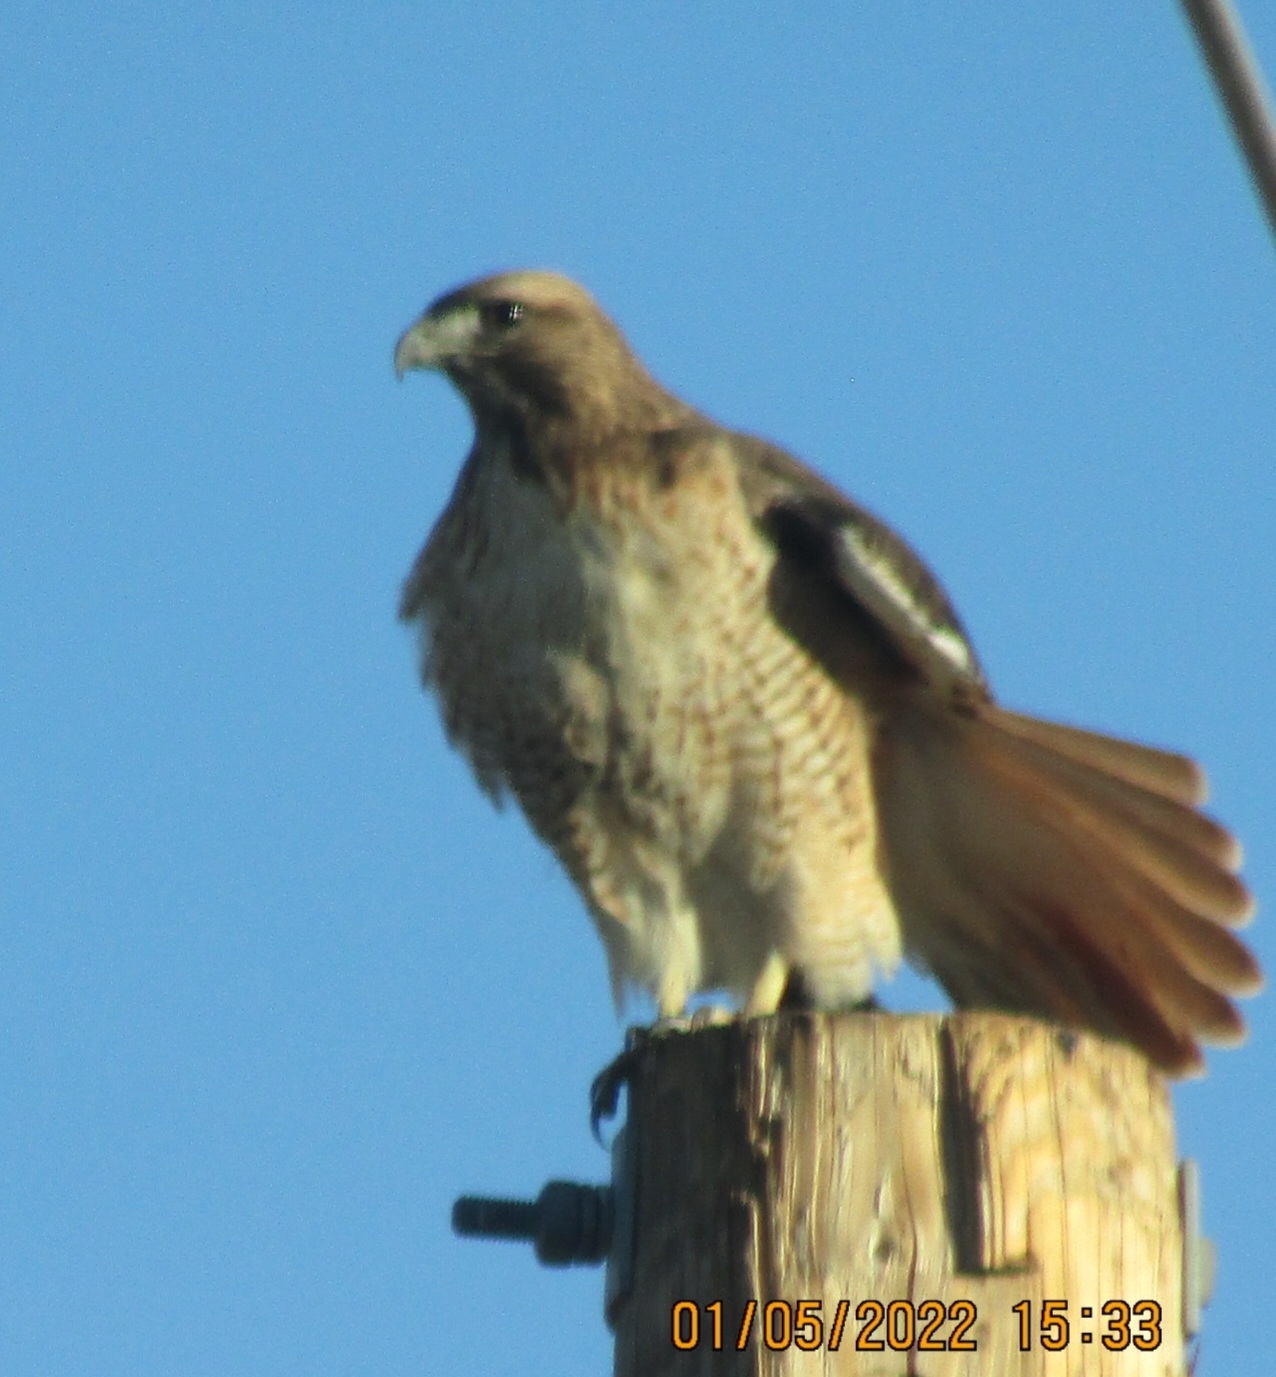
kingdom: Animalia
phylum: Chordata
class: Aves
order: Accipitriformes
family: Accipitridae
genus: Buteo
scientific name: Buteo jamaicensis
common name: Red-tailed hawk
